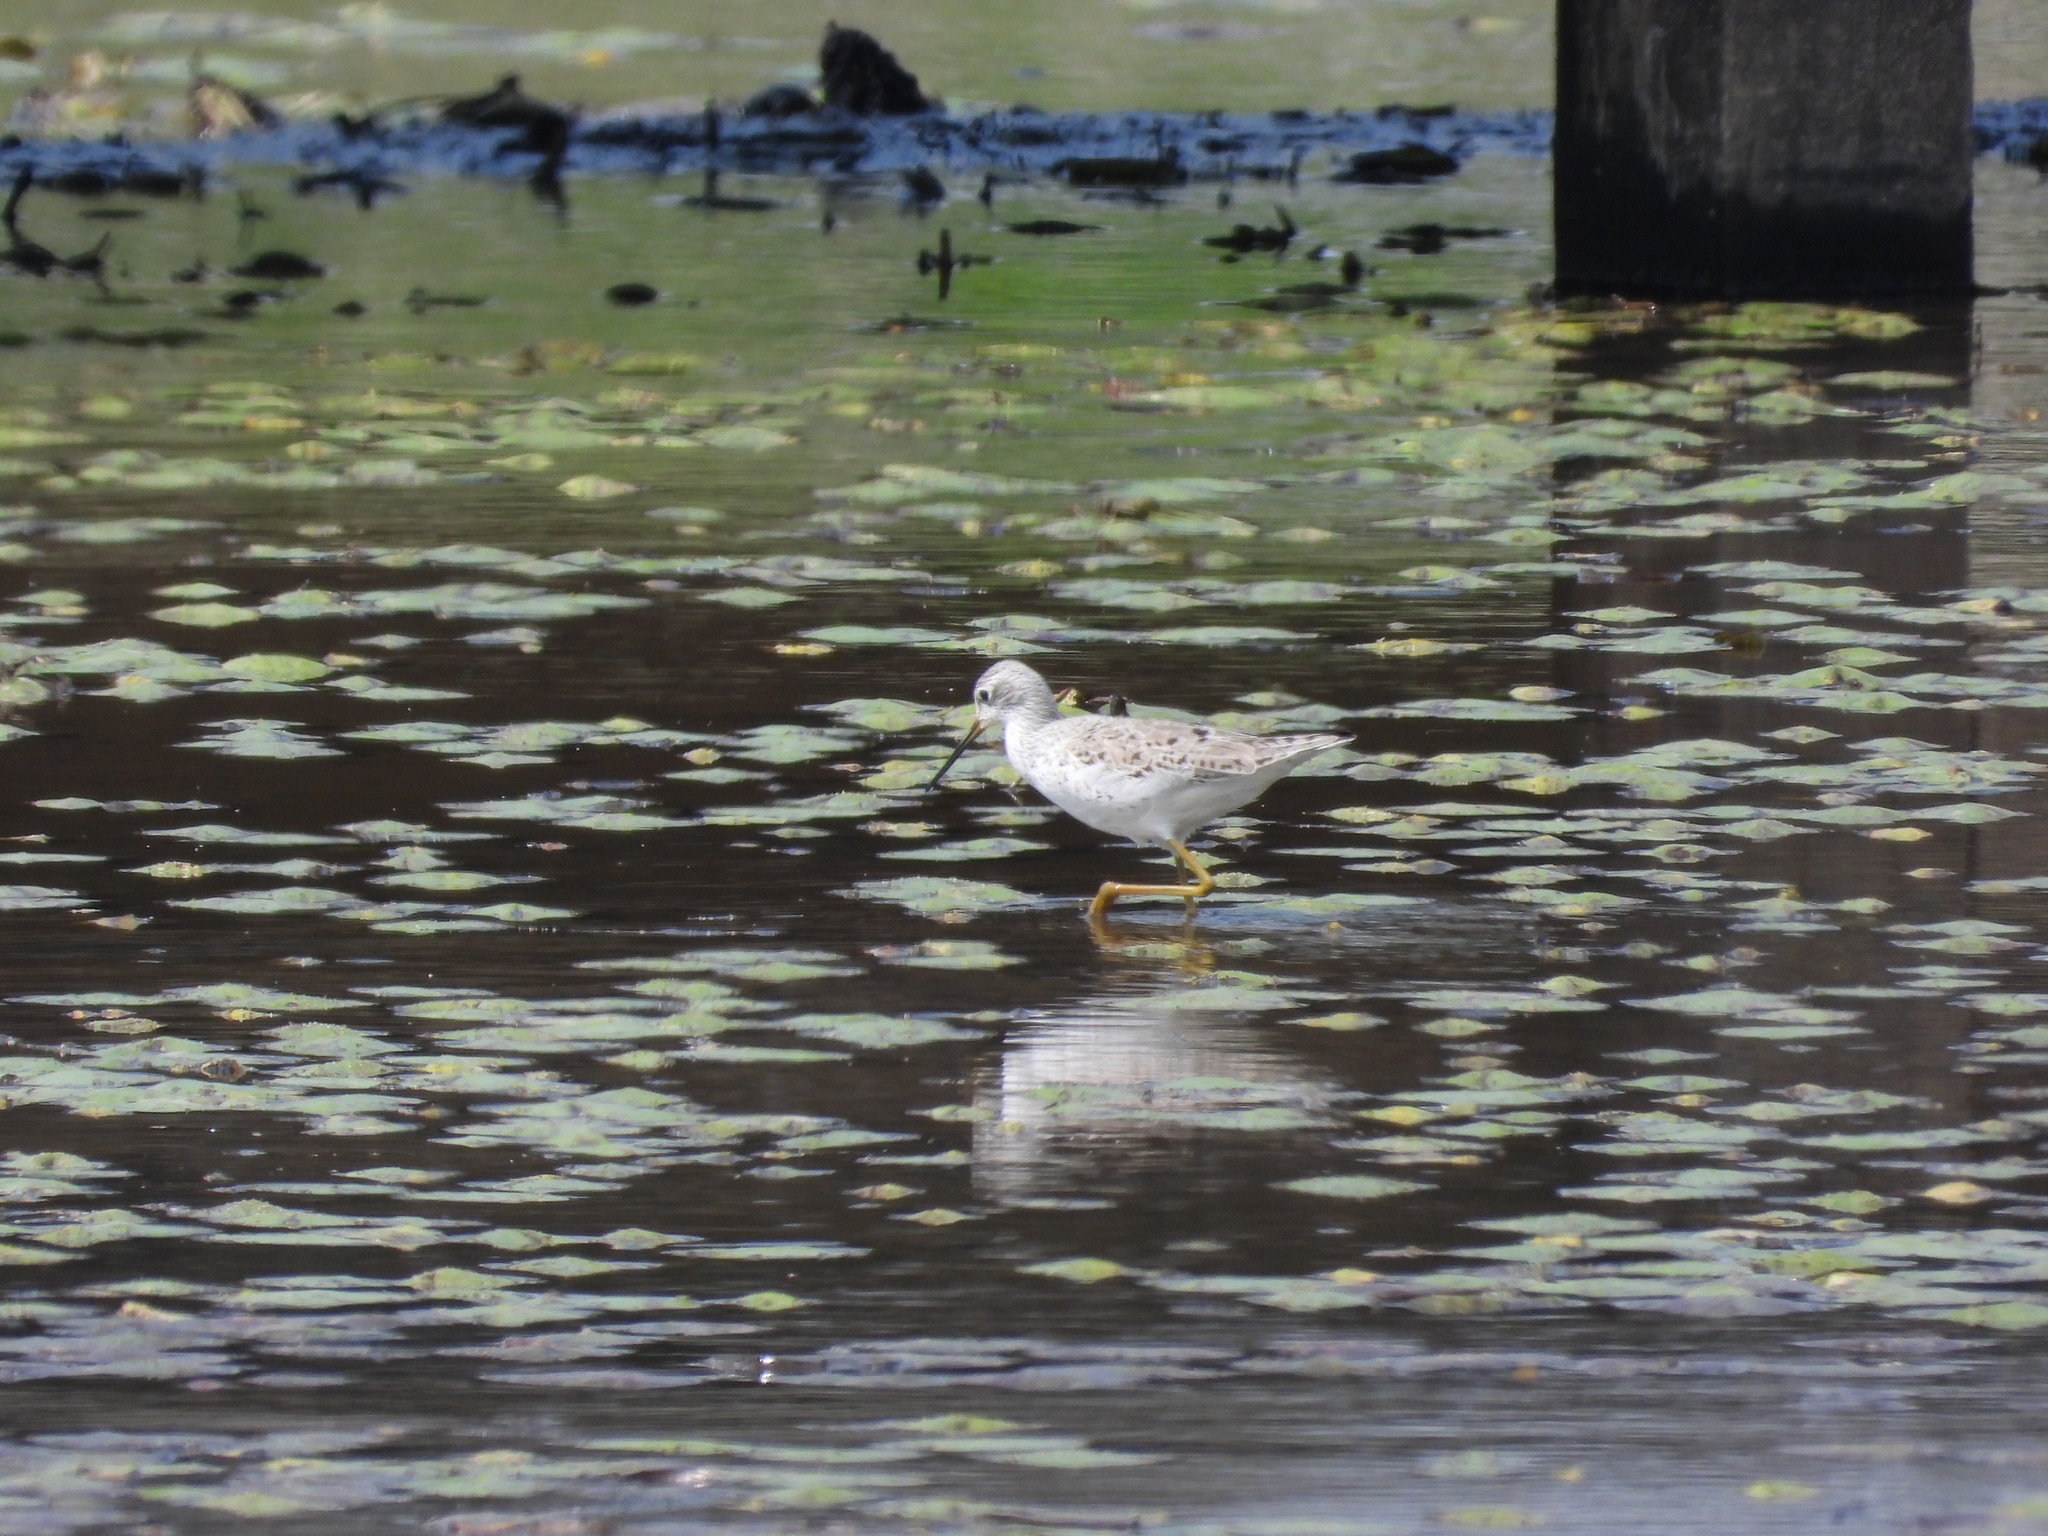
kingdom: Animalia
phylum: Chordata
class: Aves
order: Charadriiformes
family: Scolopacidae
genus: Tringa
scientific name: Tringa stagnatilis
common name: Marsh sandpiper
